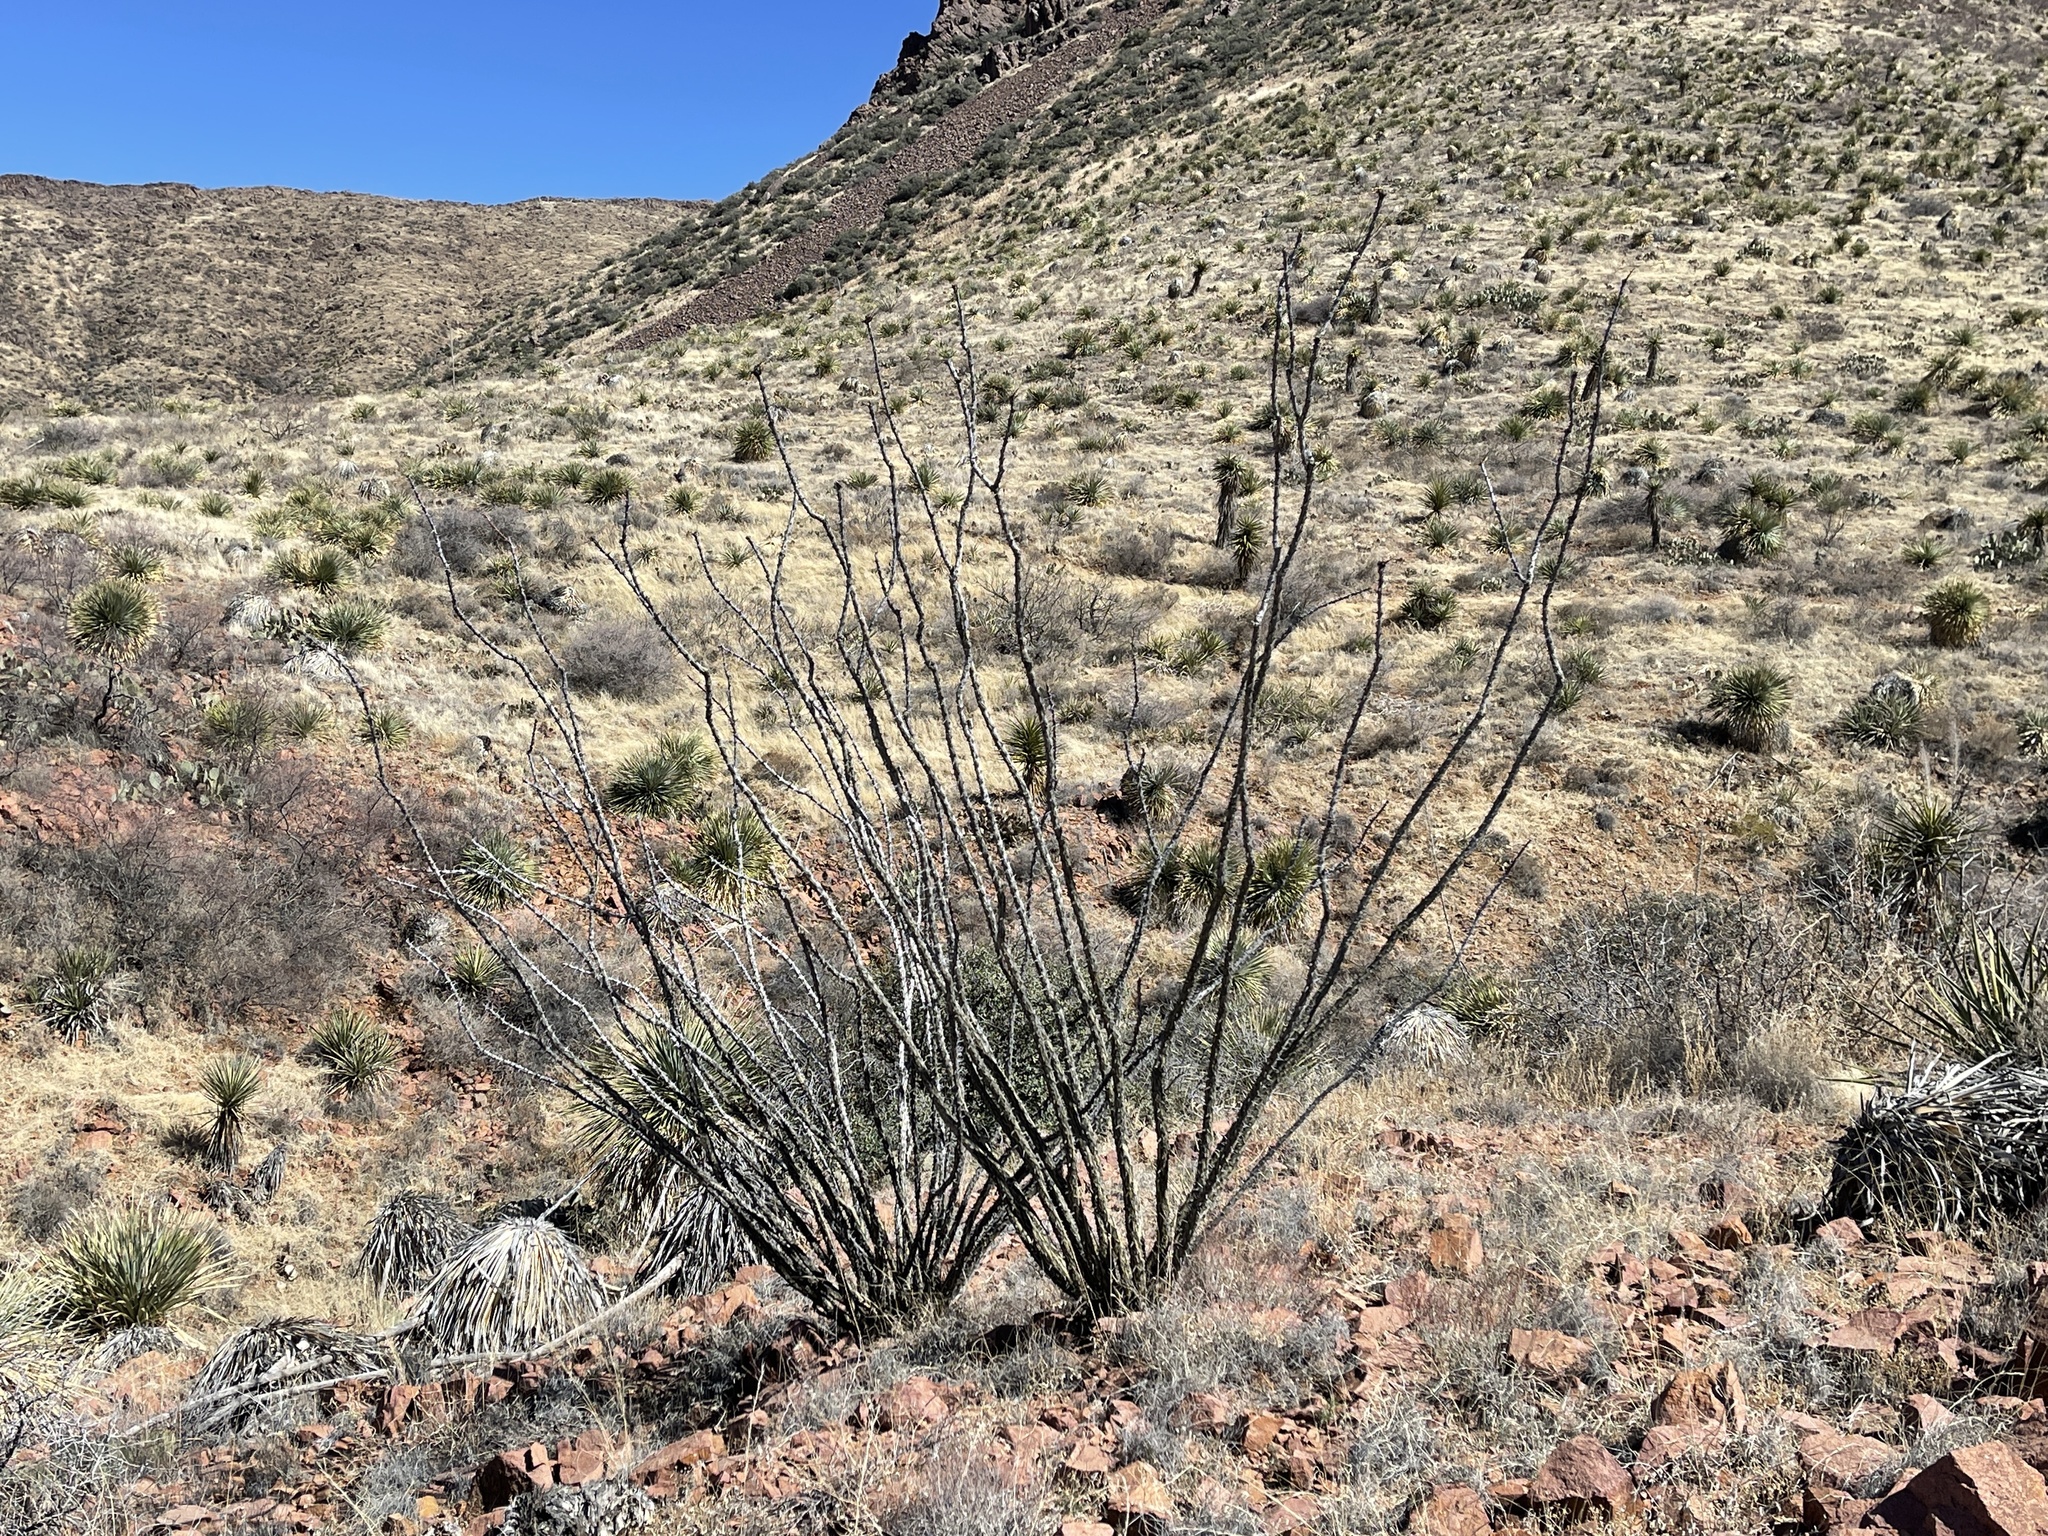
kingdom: Plantae
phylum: Tracheophyta
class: Magnoliopsida
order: Ericales
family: Fouquieriaceae
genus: Fouquieria
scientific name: Fouquieria splendens
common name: Vine-cactus
